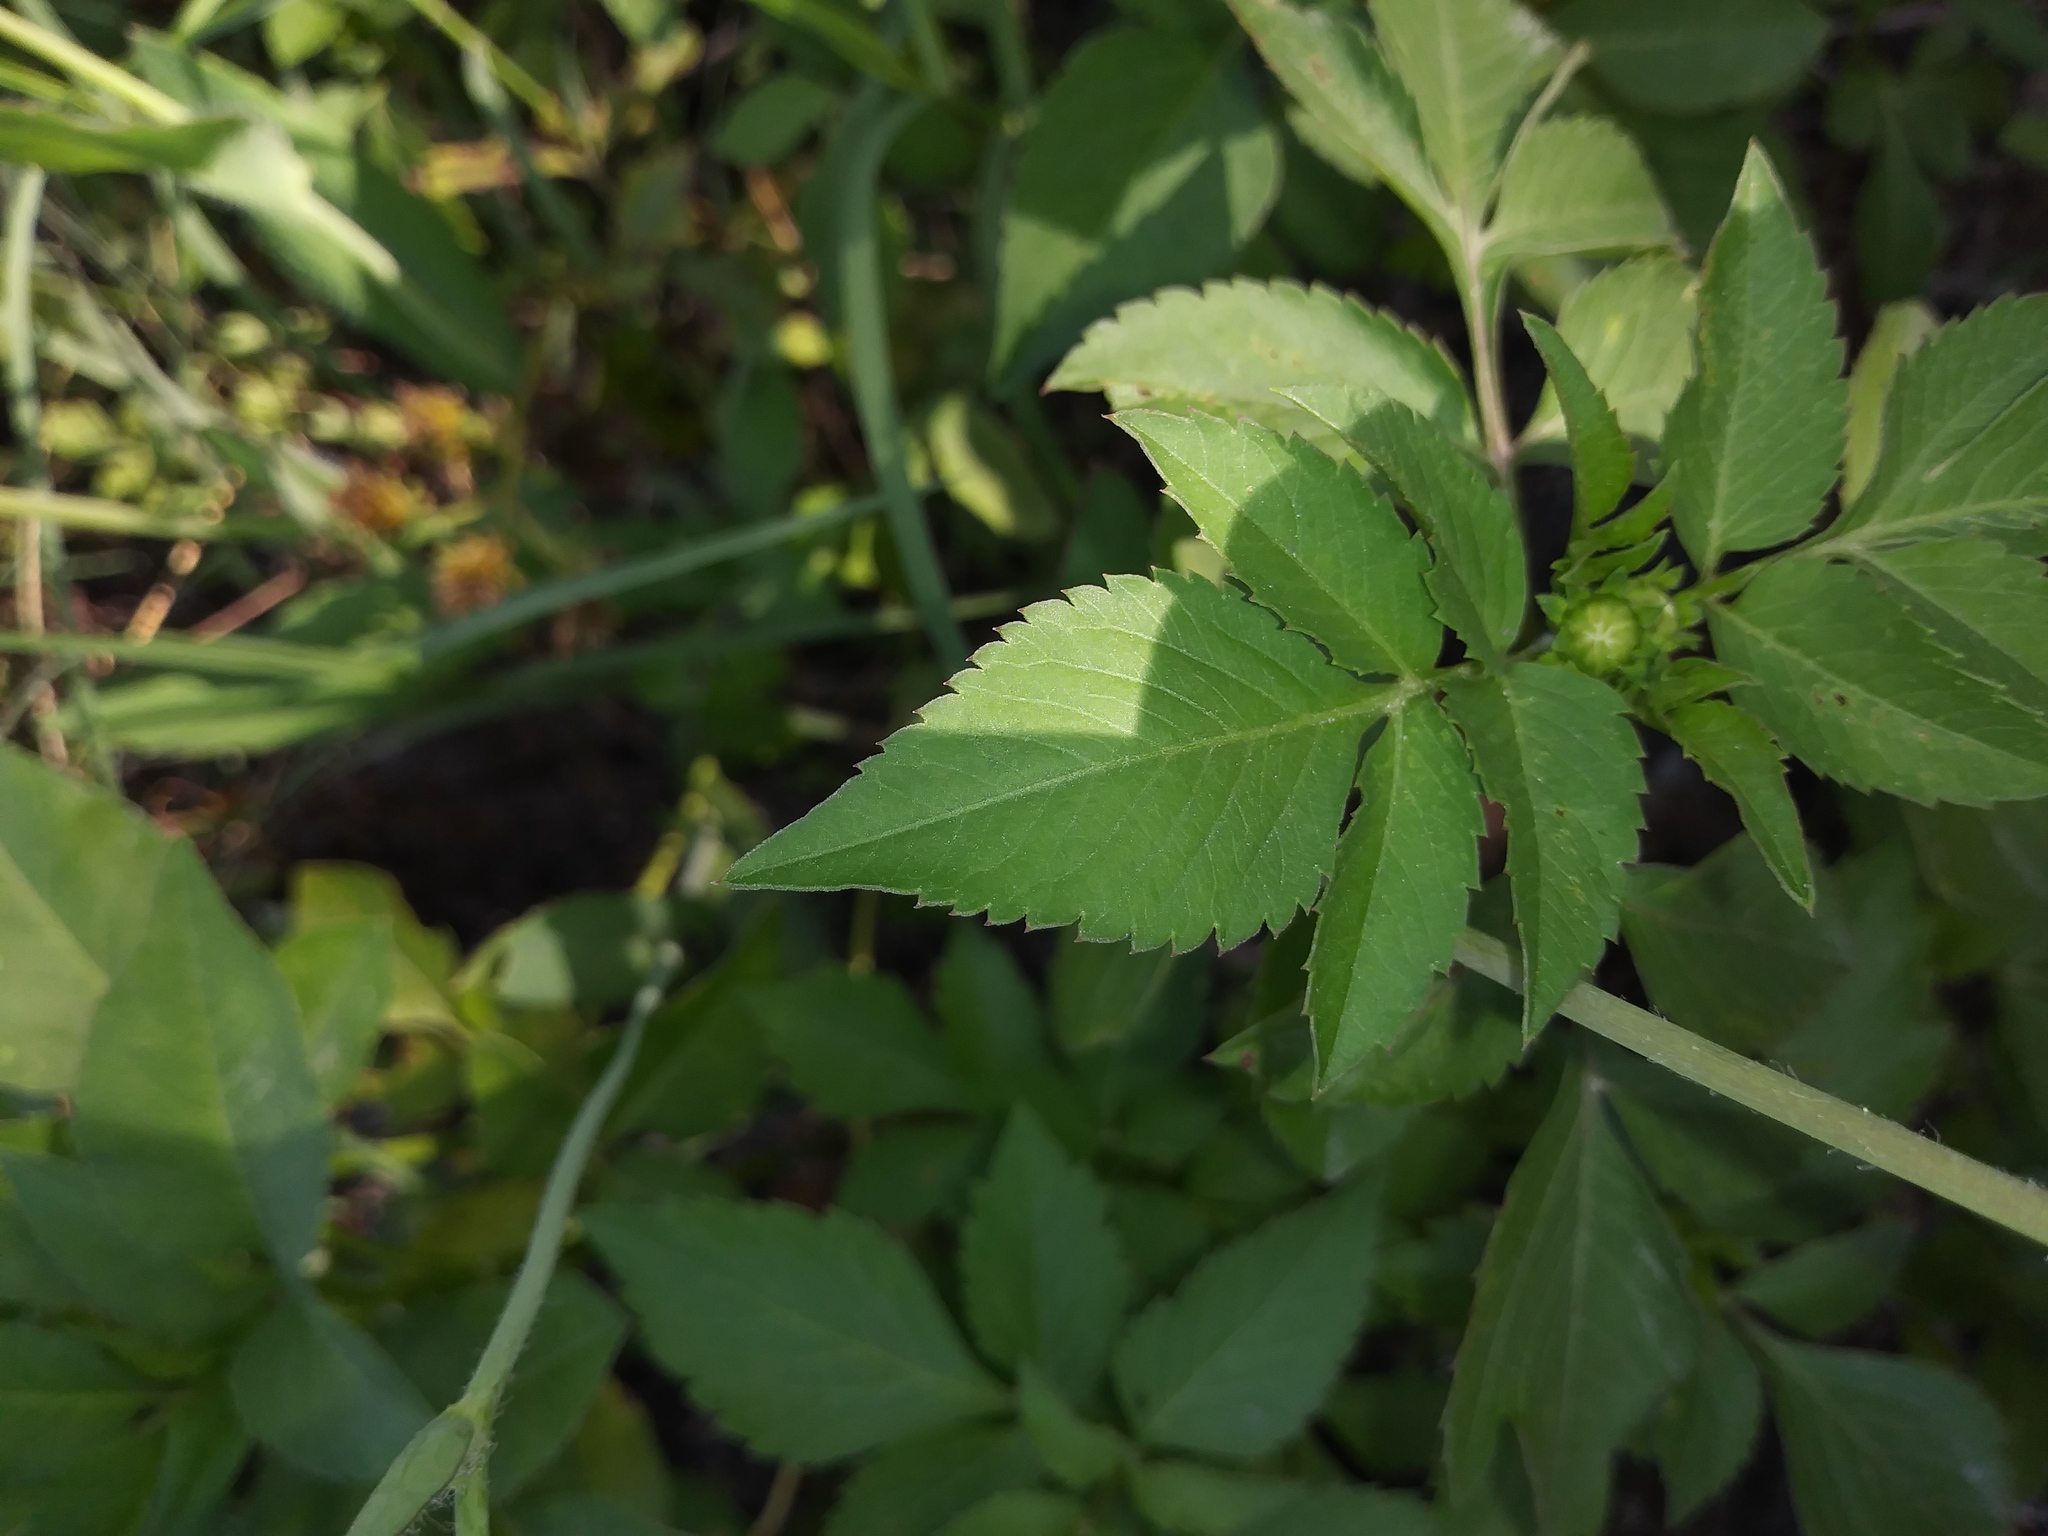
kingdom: Plantae
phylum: Tracheophyta
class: Magnoliopsida
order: Asterales
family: Asteraceae
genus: Emilia
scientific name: Emilia fosbergii
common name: Florida tasselflower
